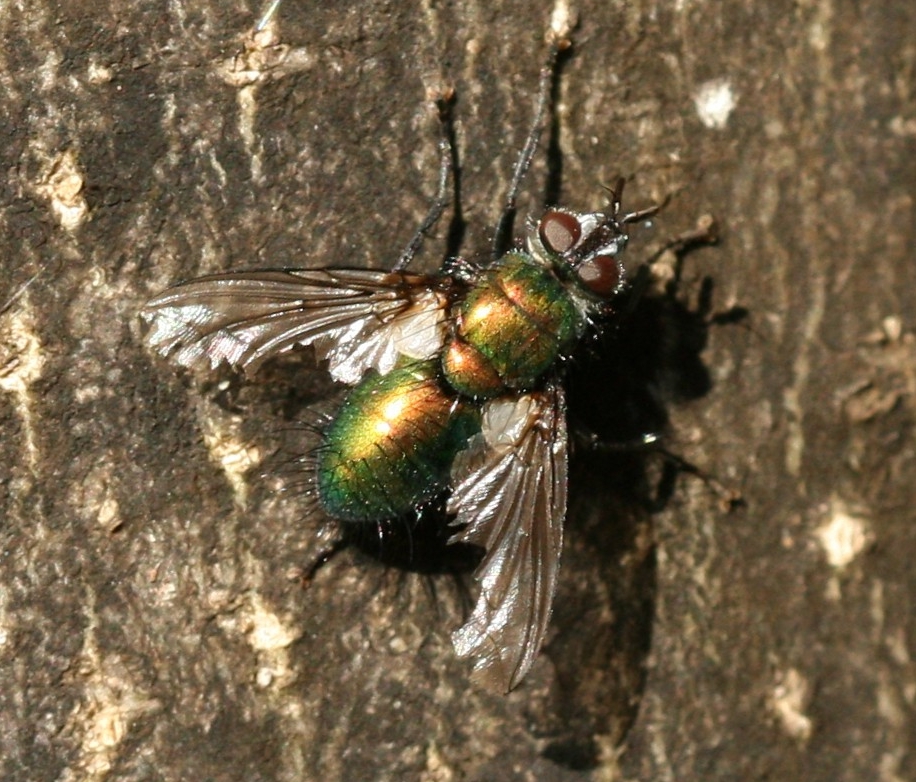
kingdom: Animalia
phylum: Arthropoda
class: Insecta
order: Diptera
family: Tachinidae
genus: Gymnocheta
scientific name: Gymnocheta viridis
